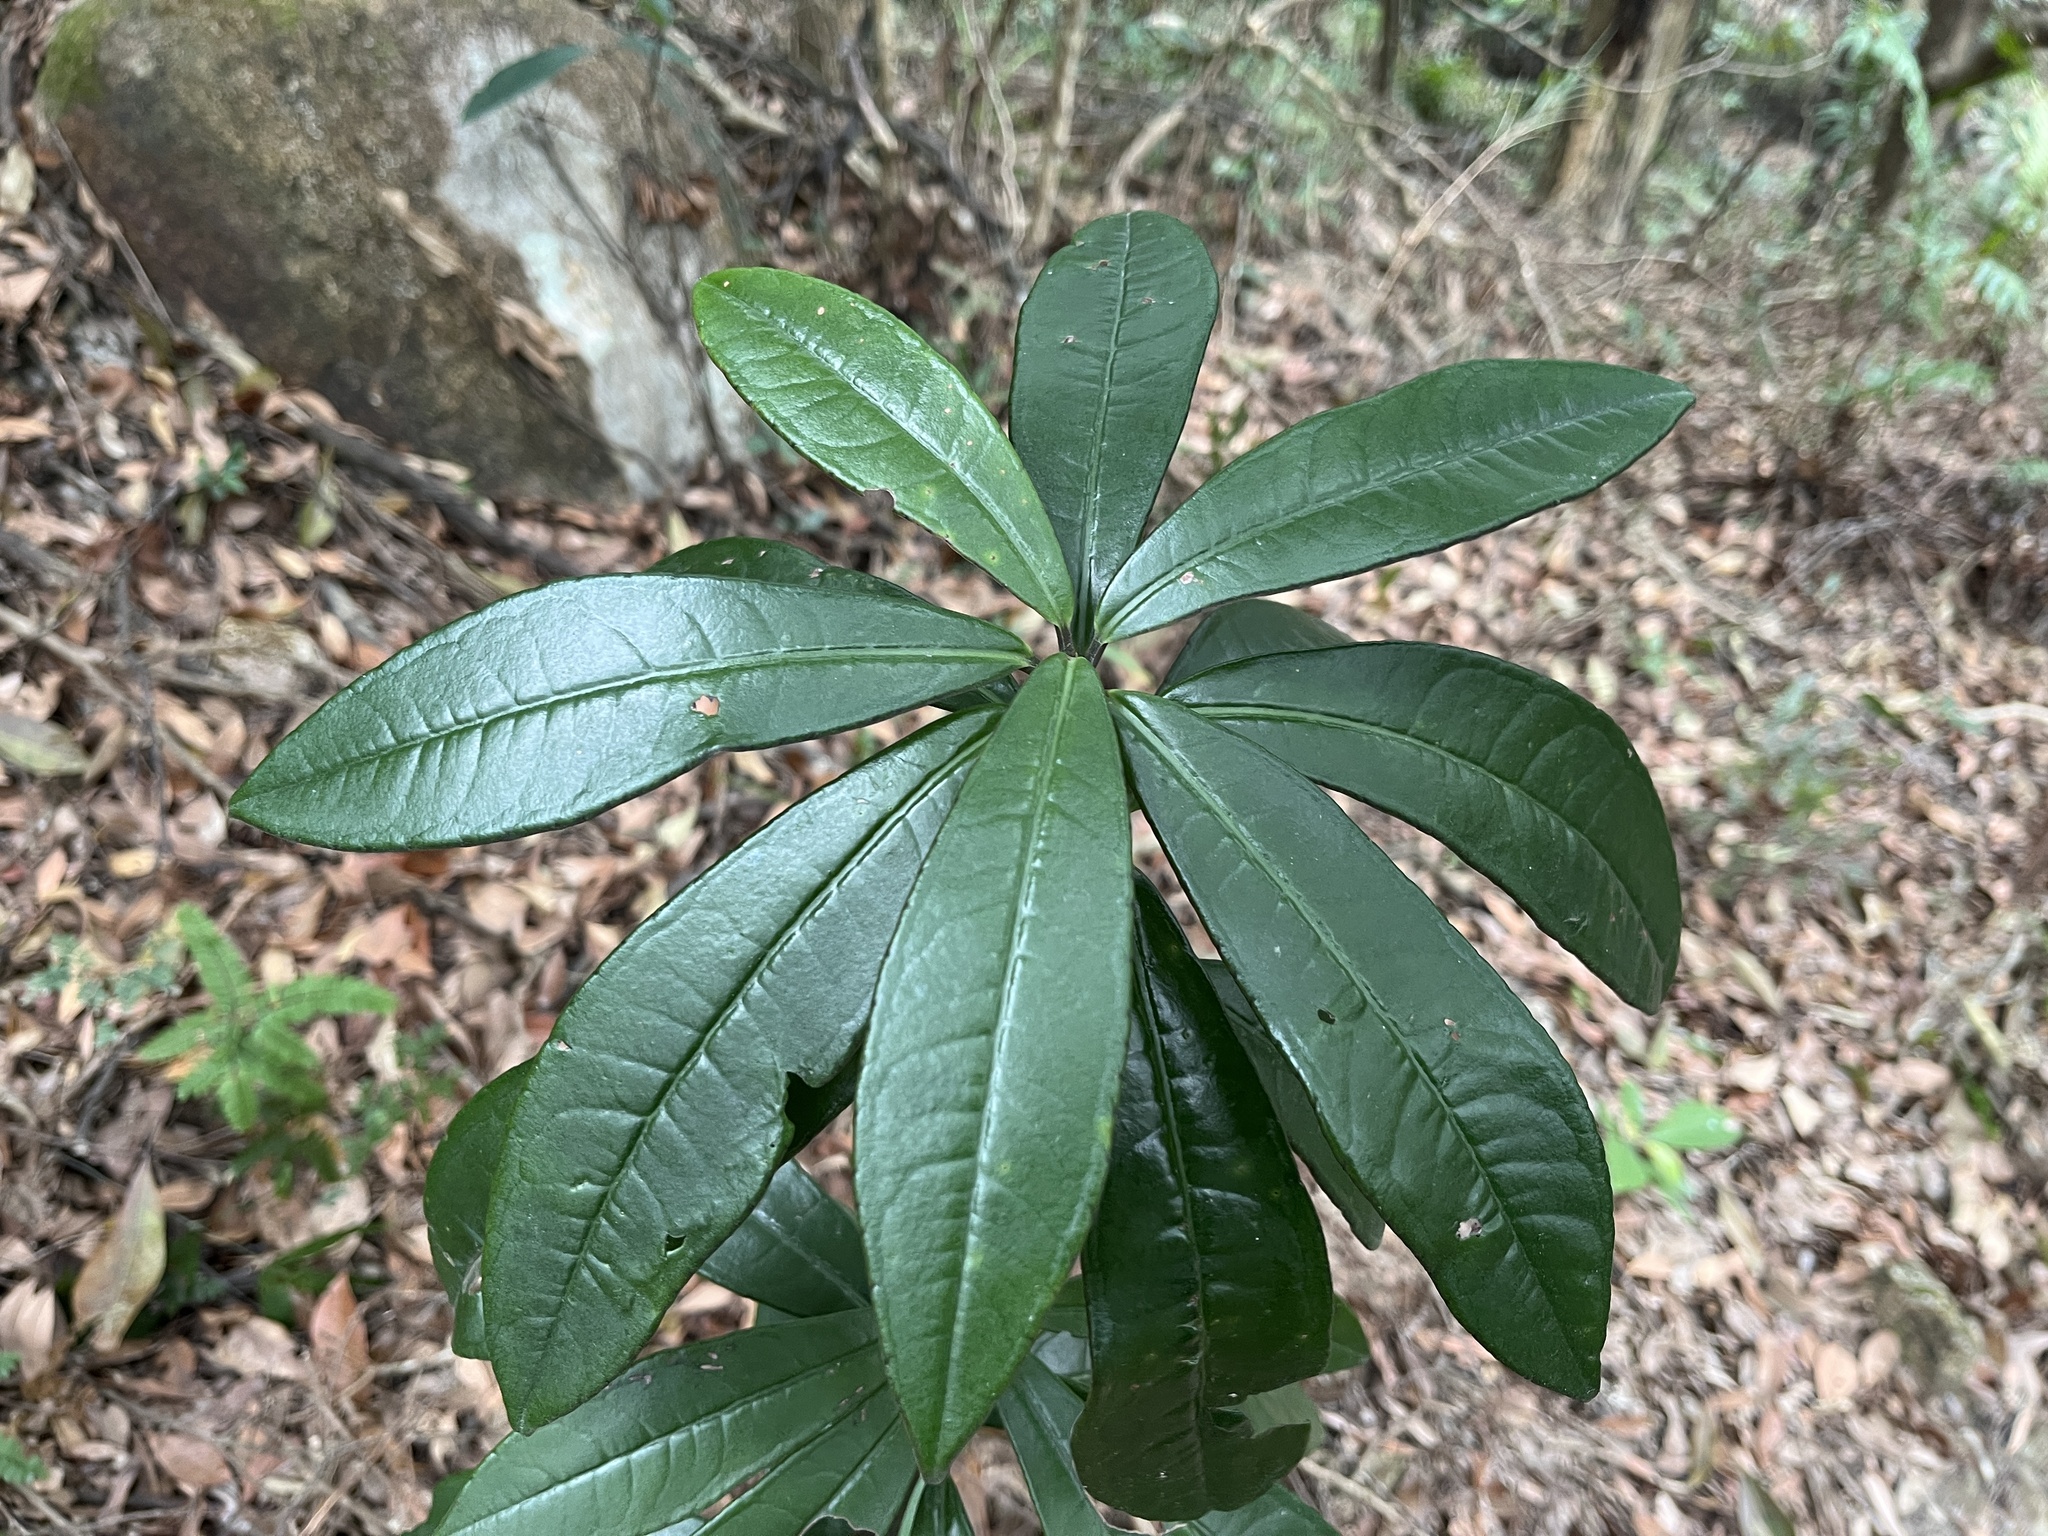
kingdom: Plantae
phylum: Tracheophyta
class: Magnoliopsida
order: Ericales
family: Primulaceae
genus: Ardisia
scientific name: Ardisia lindleyana
